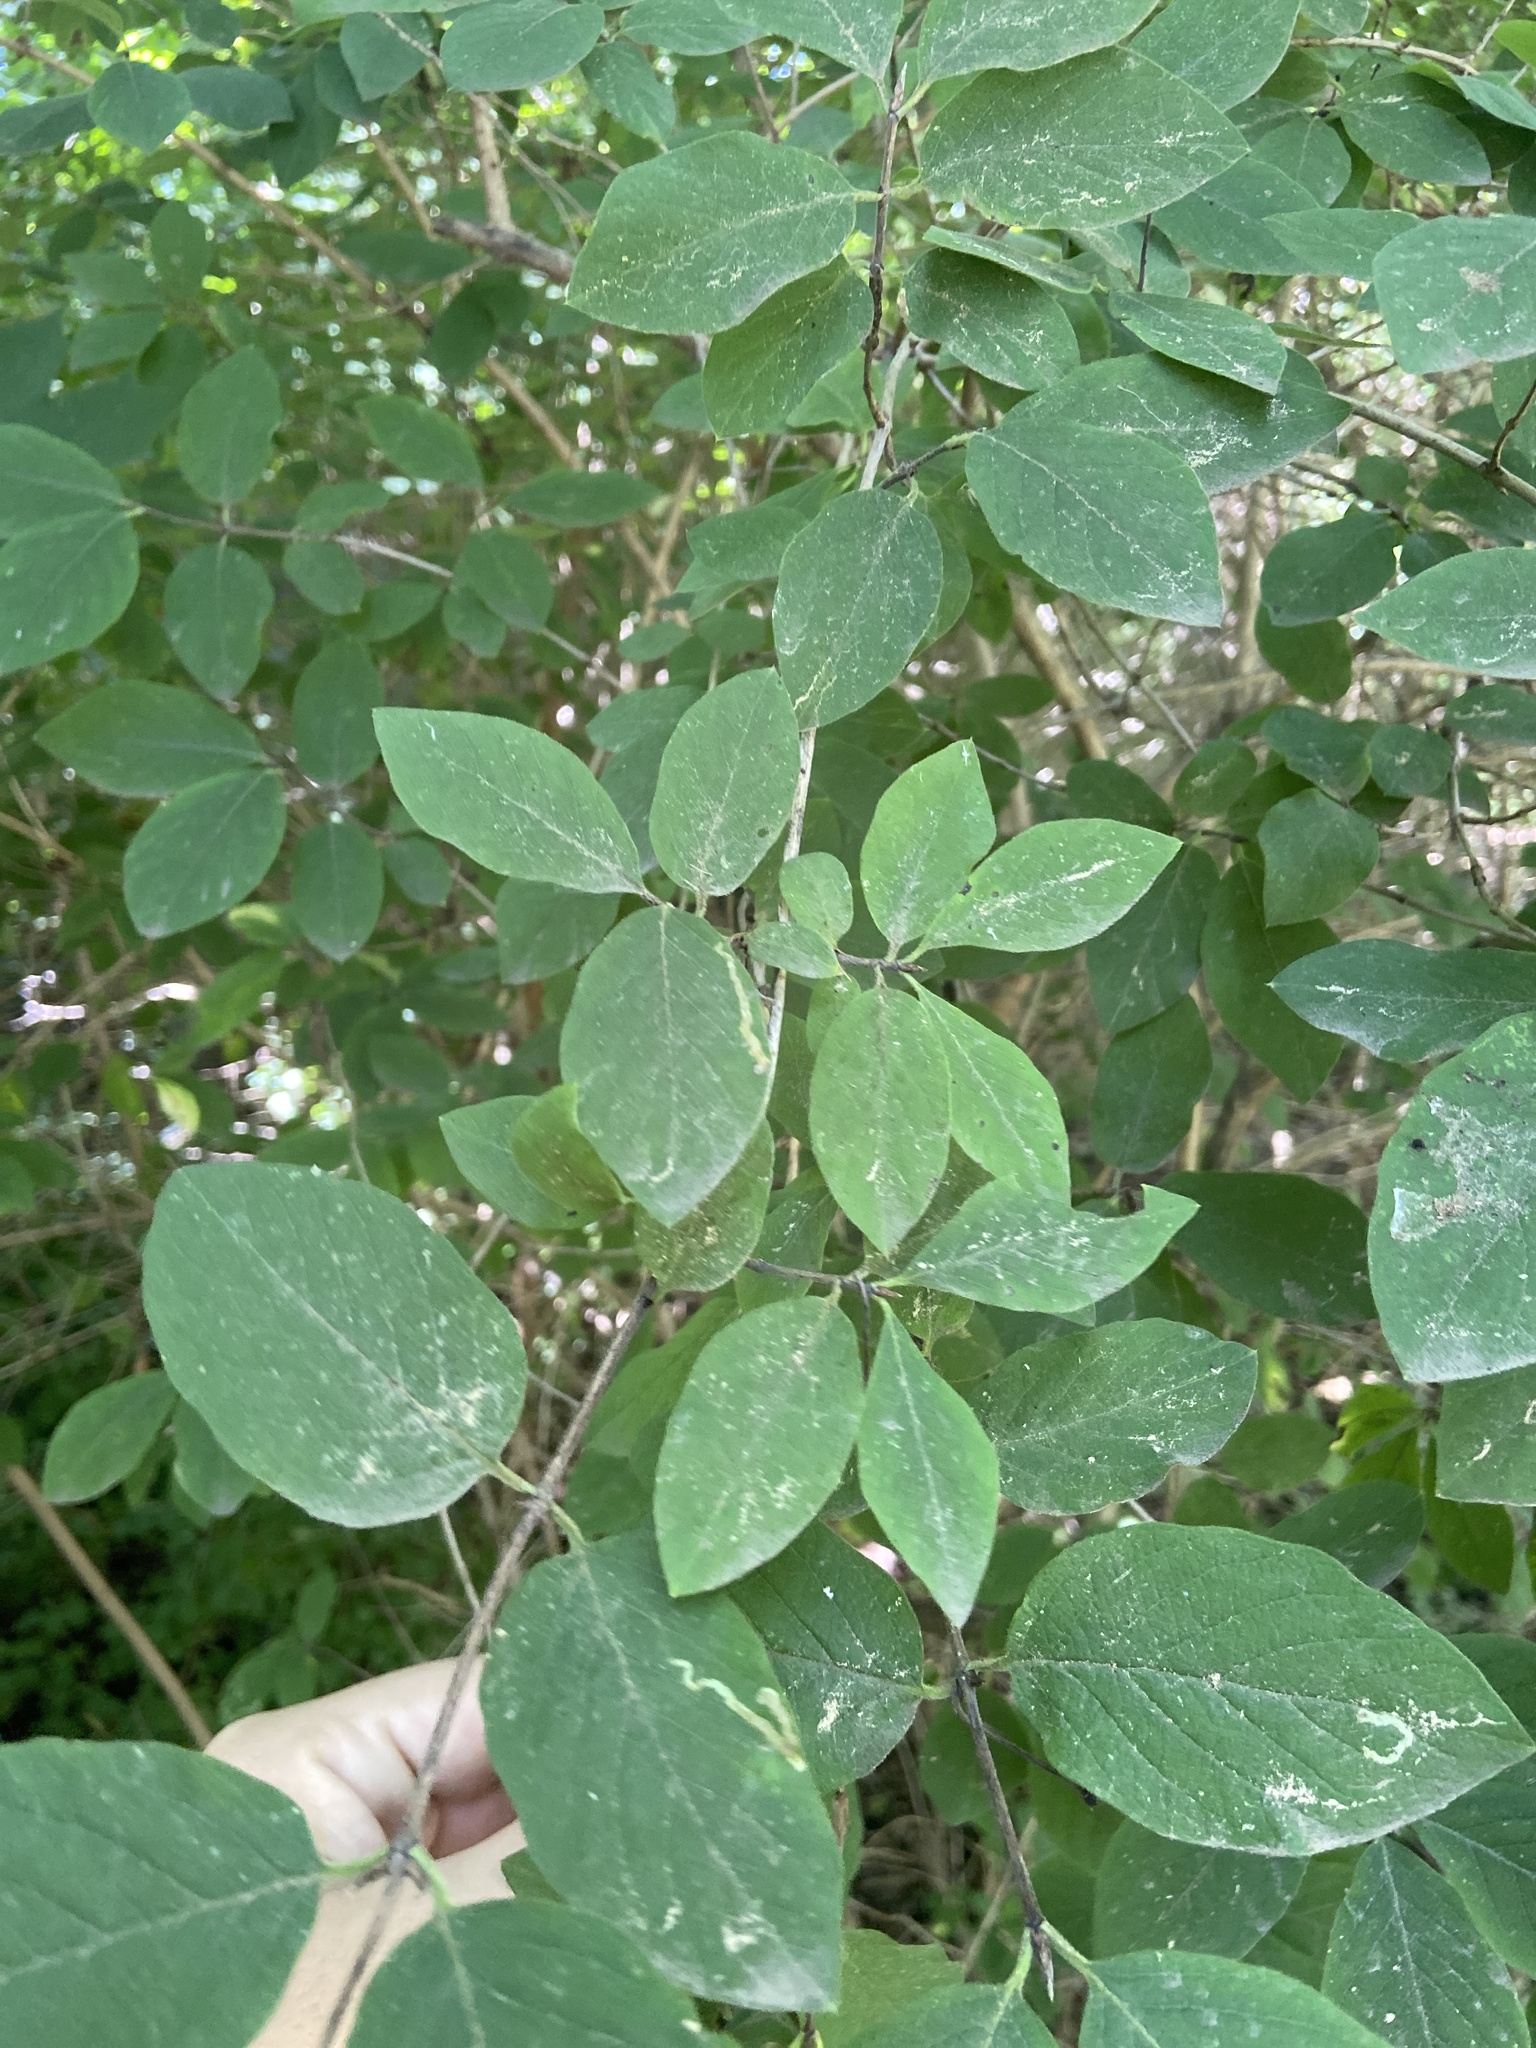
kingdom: Animalia
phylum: Arthropoda
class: Insecta
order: Diptera
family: Agromyzidae
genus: Aulagromyza
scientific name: Aulagromyza luteoscutellata
